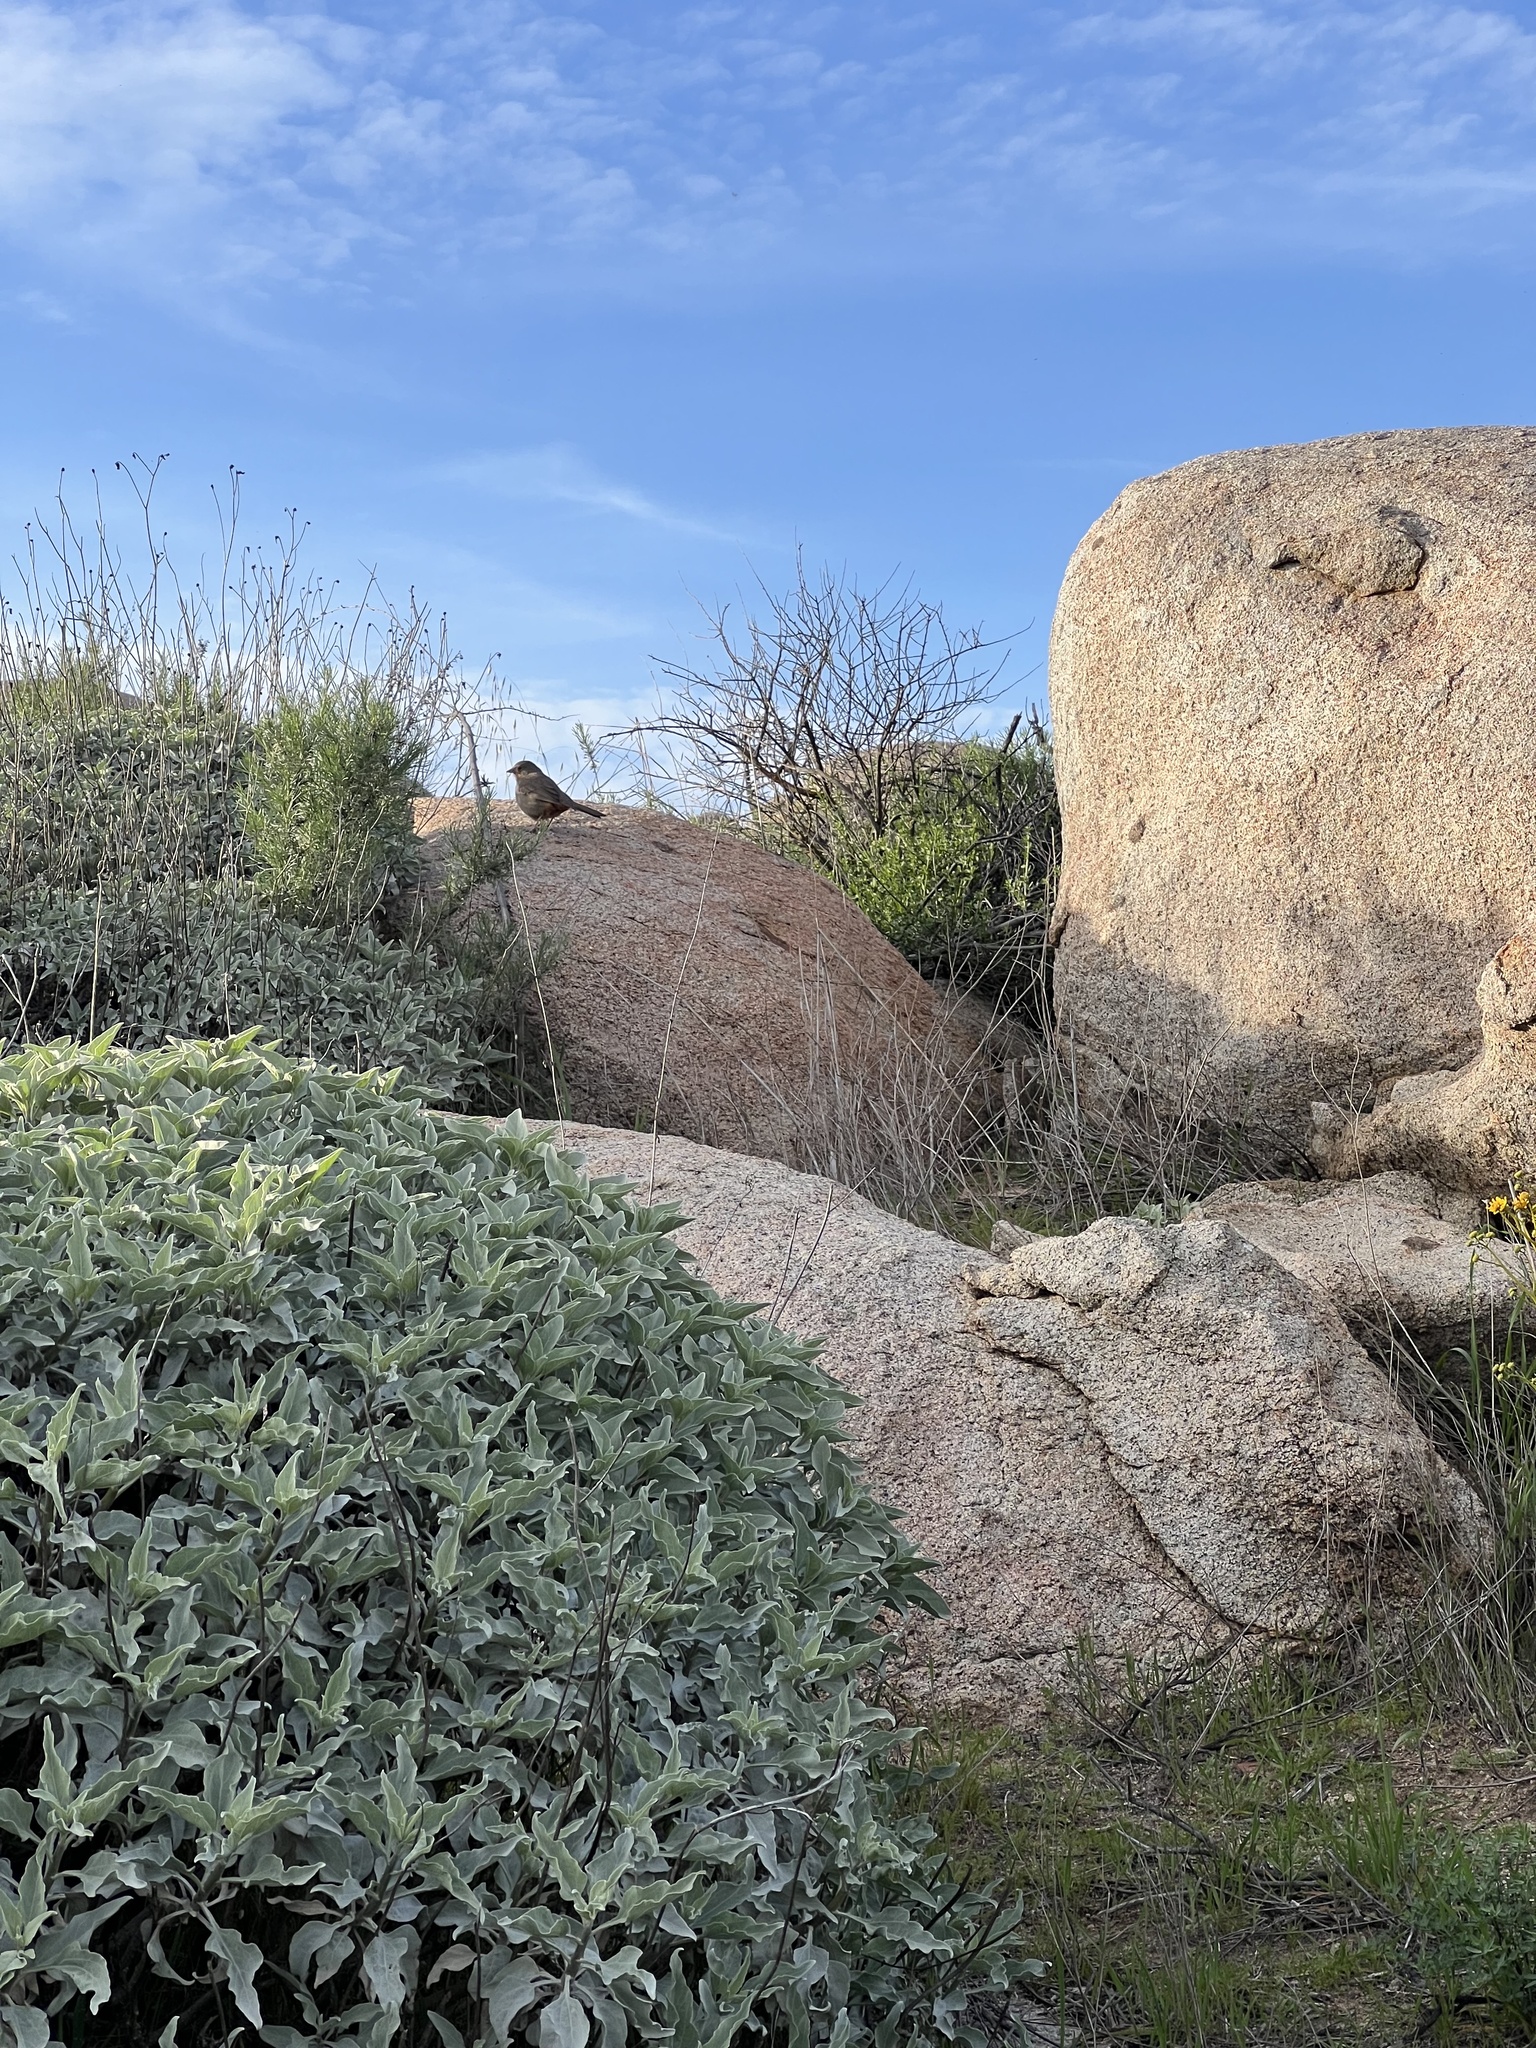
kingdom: Animalia
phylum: Chordata
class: Aves
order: Passeriformes
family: Passerellidae
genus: Melozone
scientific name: Melozone crissalis
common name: California towhee
